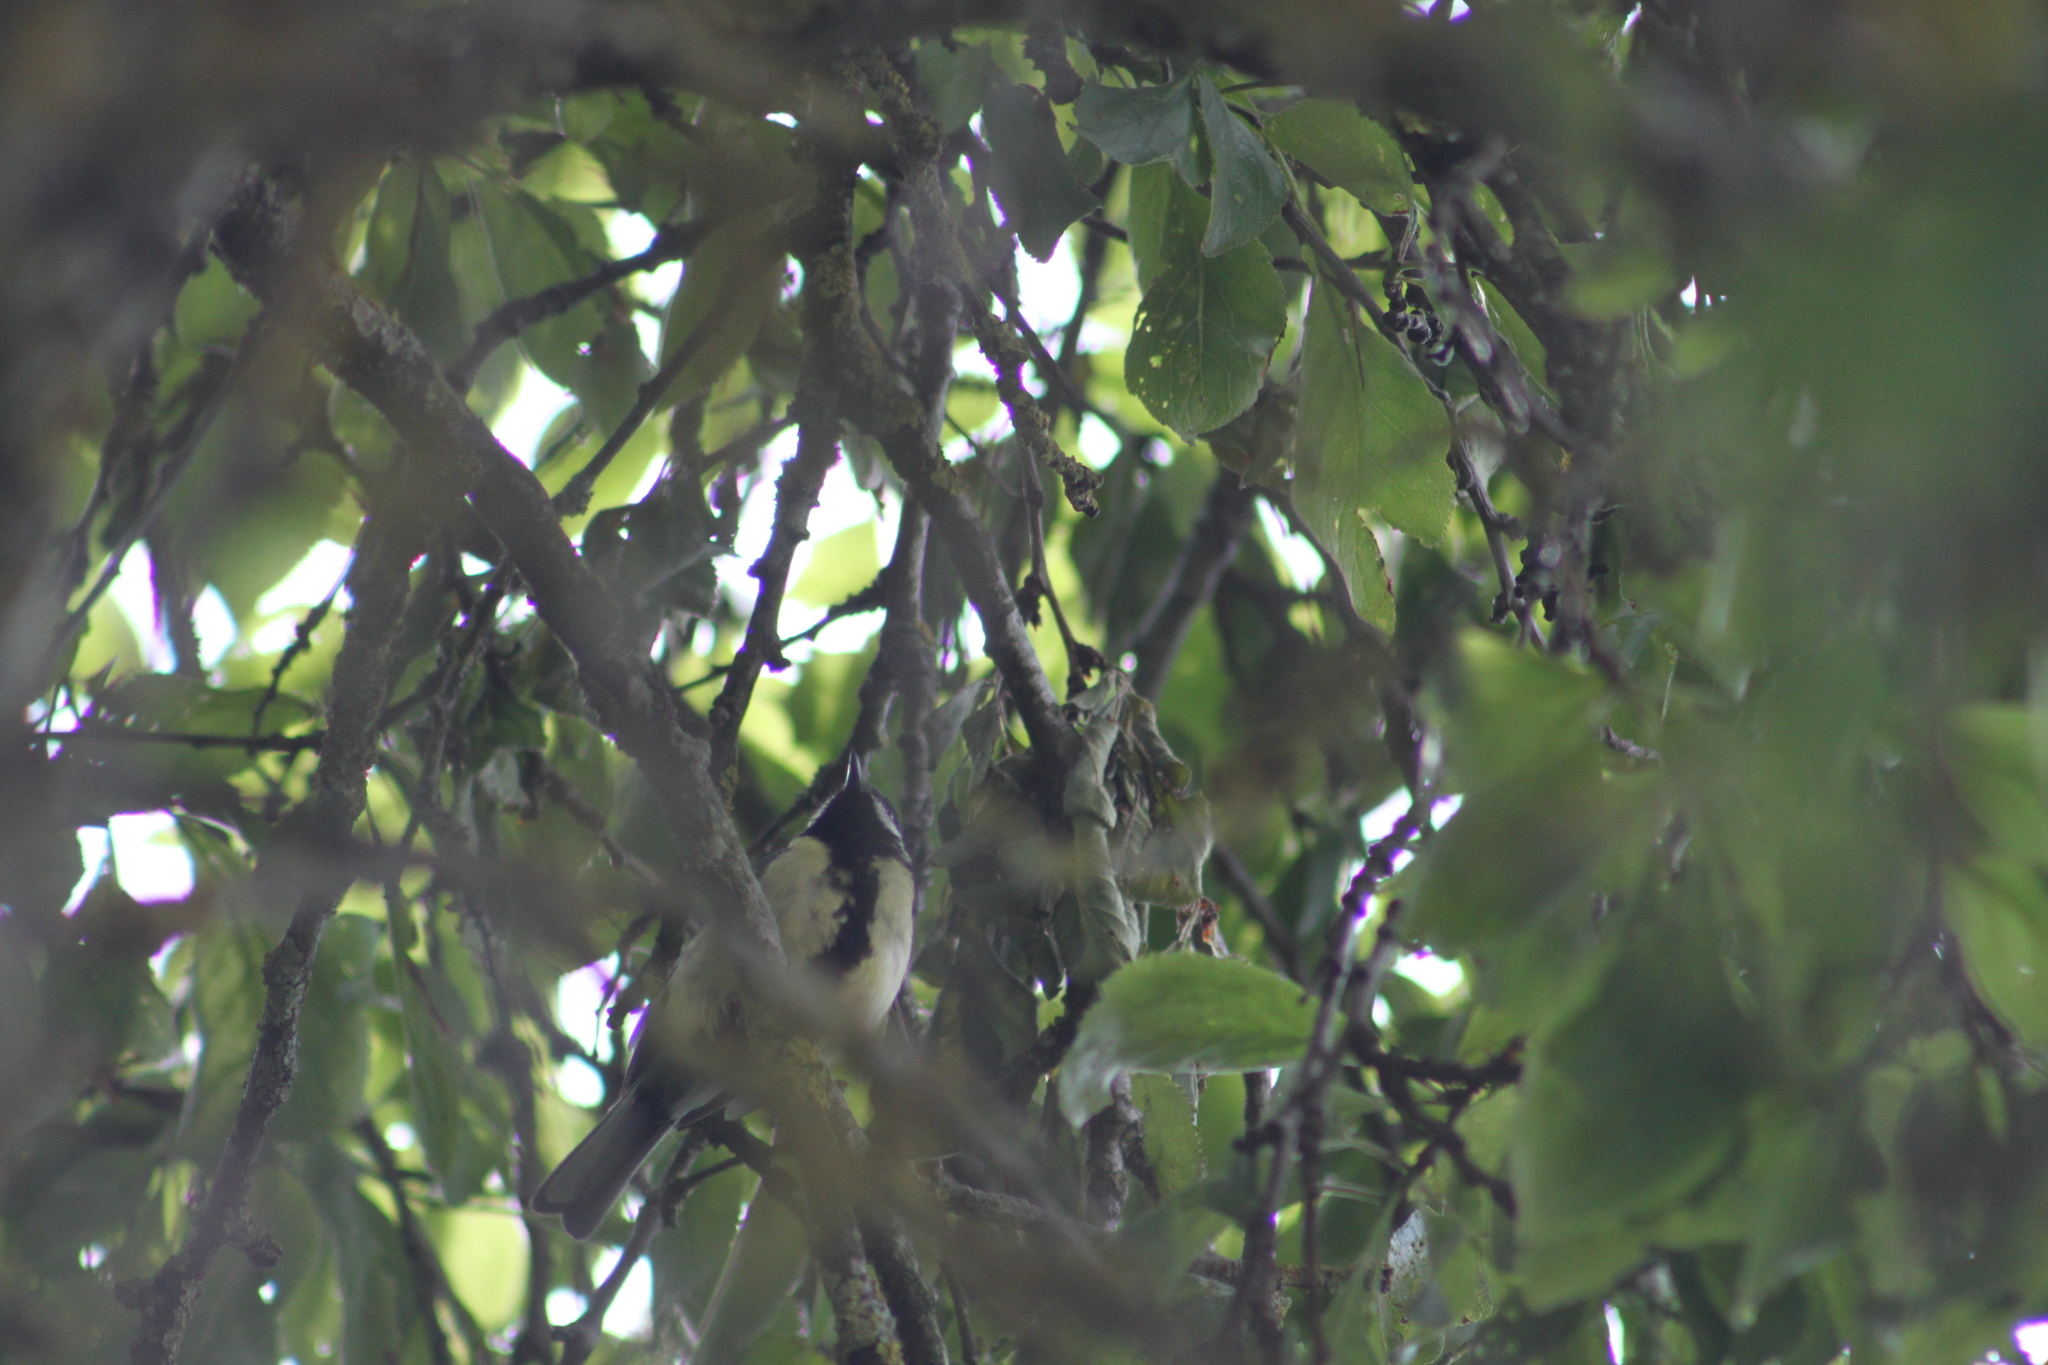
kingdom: Animalia
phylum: Chordata
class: Aves
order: Passeriformes
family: Paridae
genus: Parus
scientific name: Parus major
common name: Great tit
